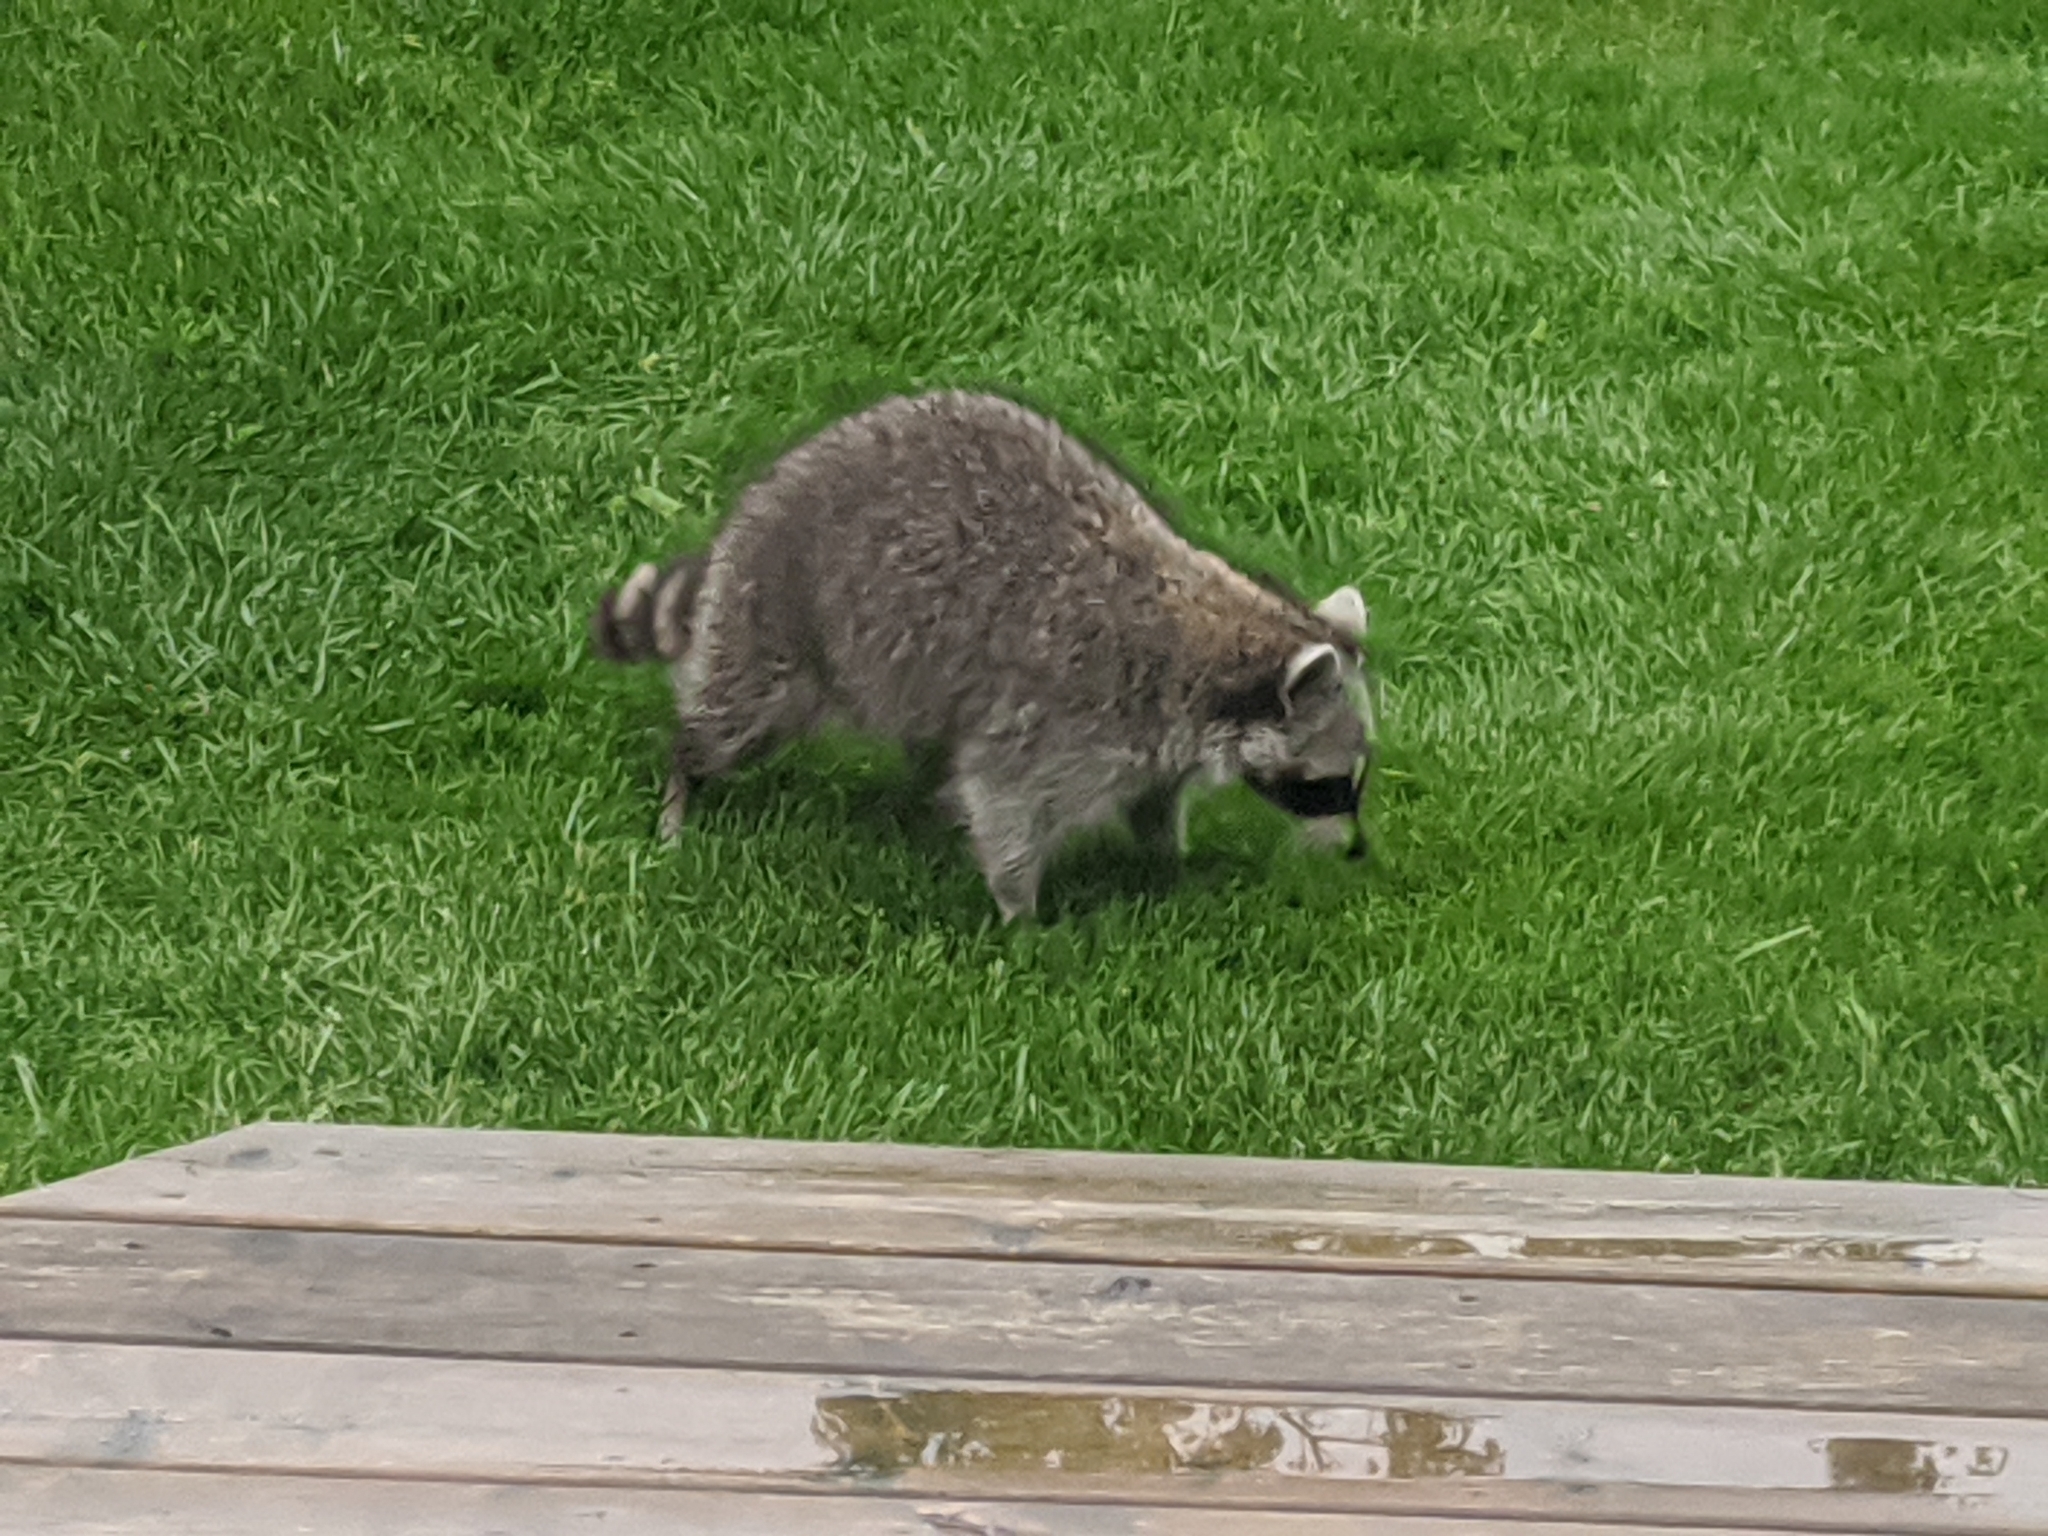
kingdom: Animalia
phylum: Chordata
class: Mammalia
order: Carnivora
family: Procyonidae
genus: Procyon
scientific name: Procyon lotor
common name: Raccoon
